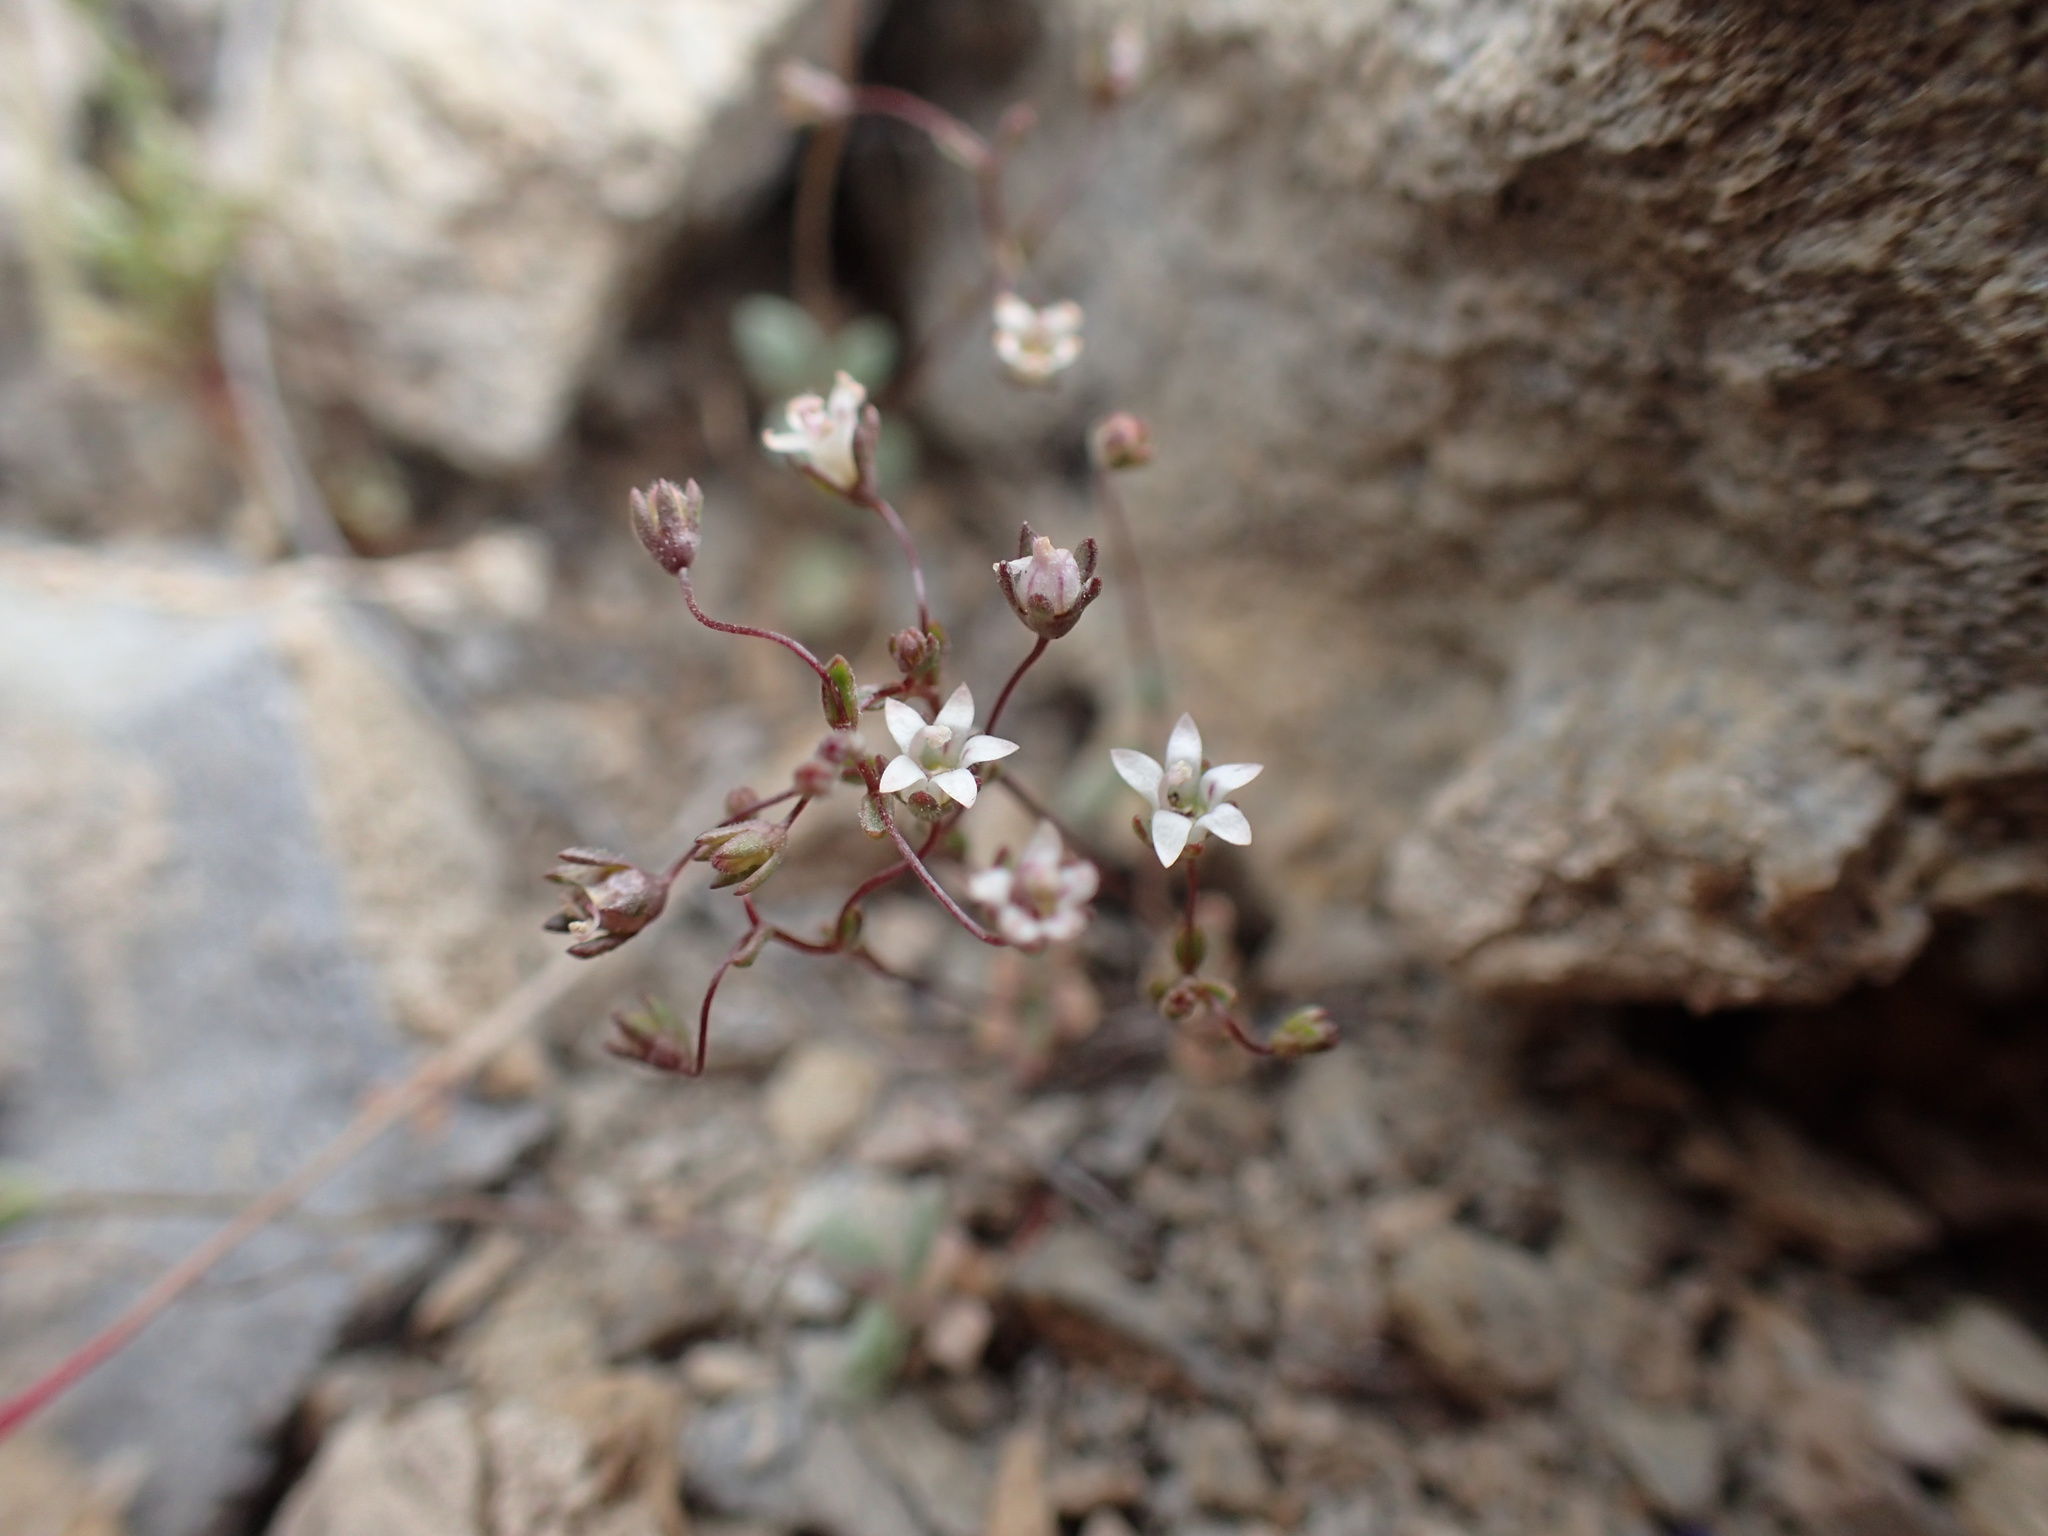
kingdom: Plantae
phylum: Tracheophyta
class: Magnoliopsida
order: Asterales
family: Campanulaceae
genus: Nemacladus
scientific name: Nemacladus inyoensis
